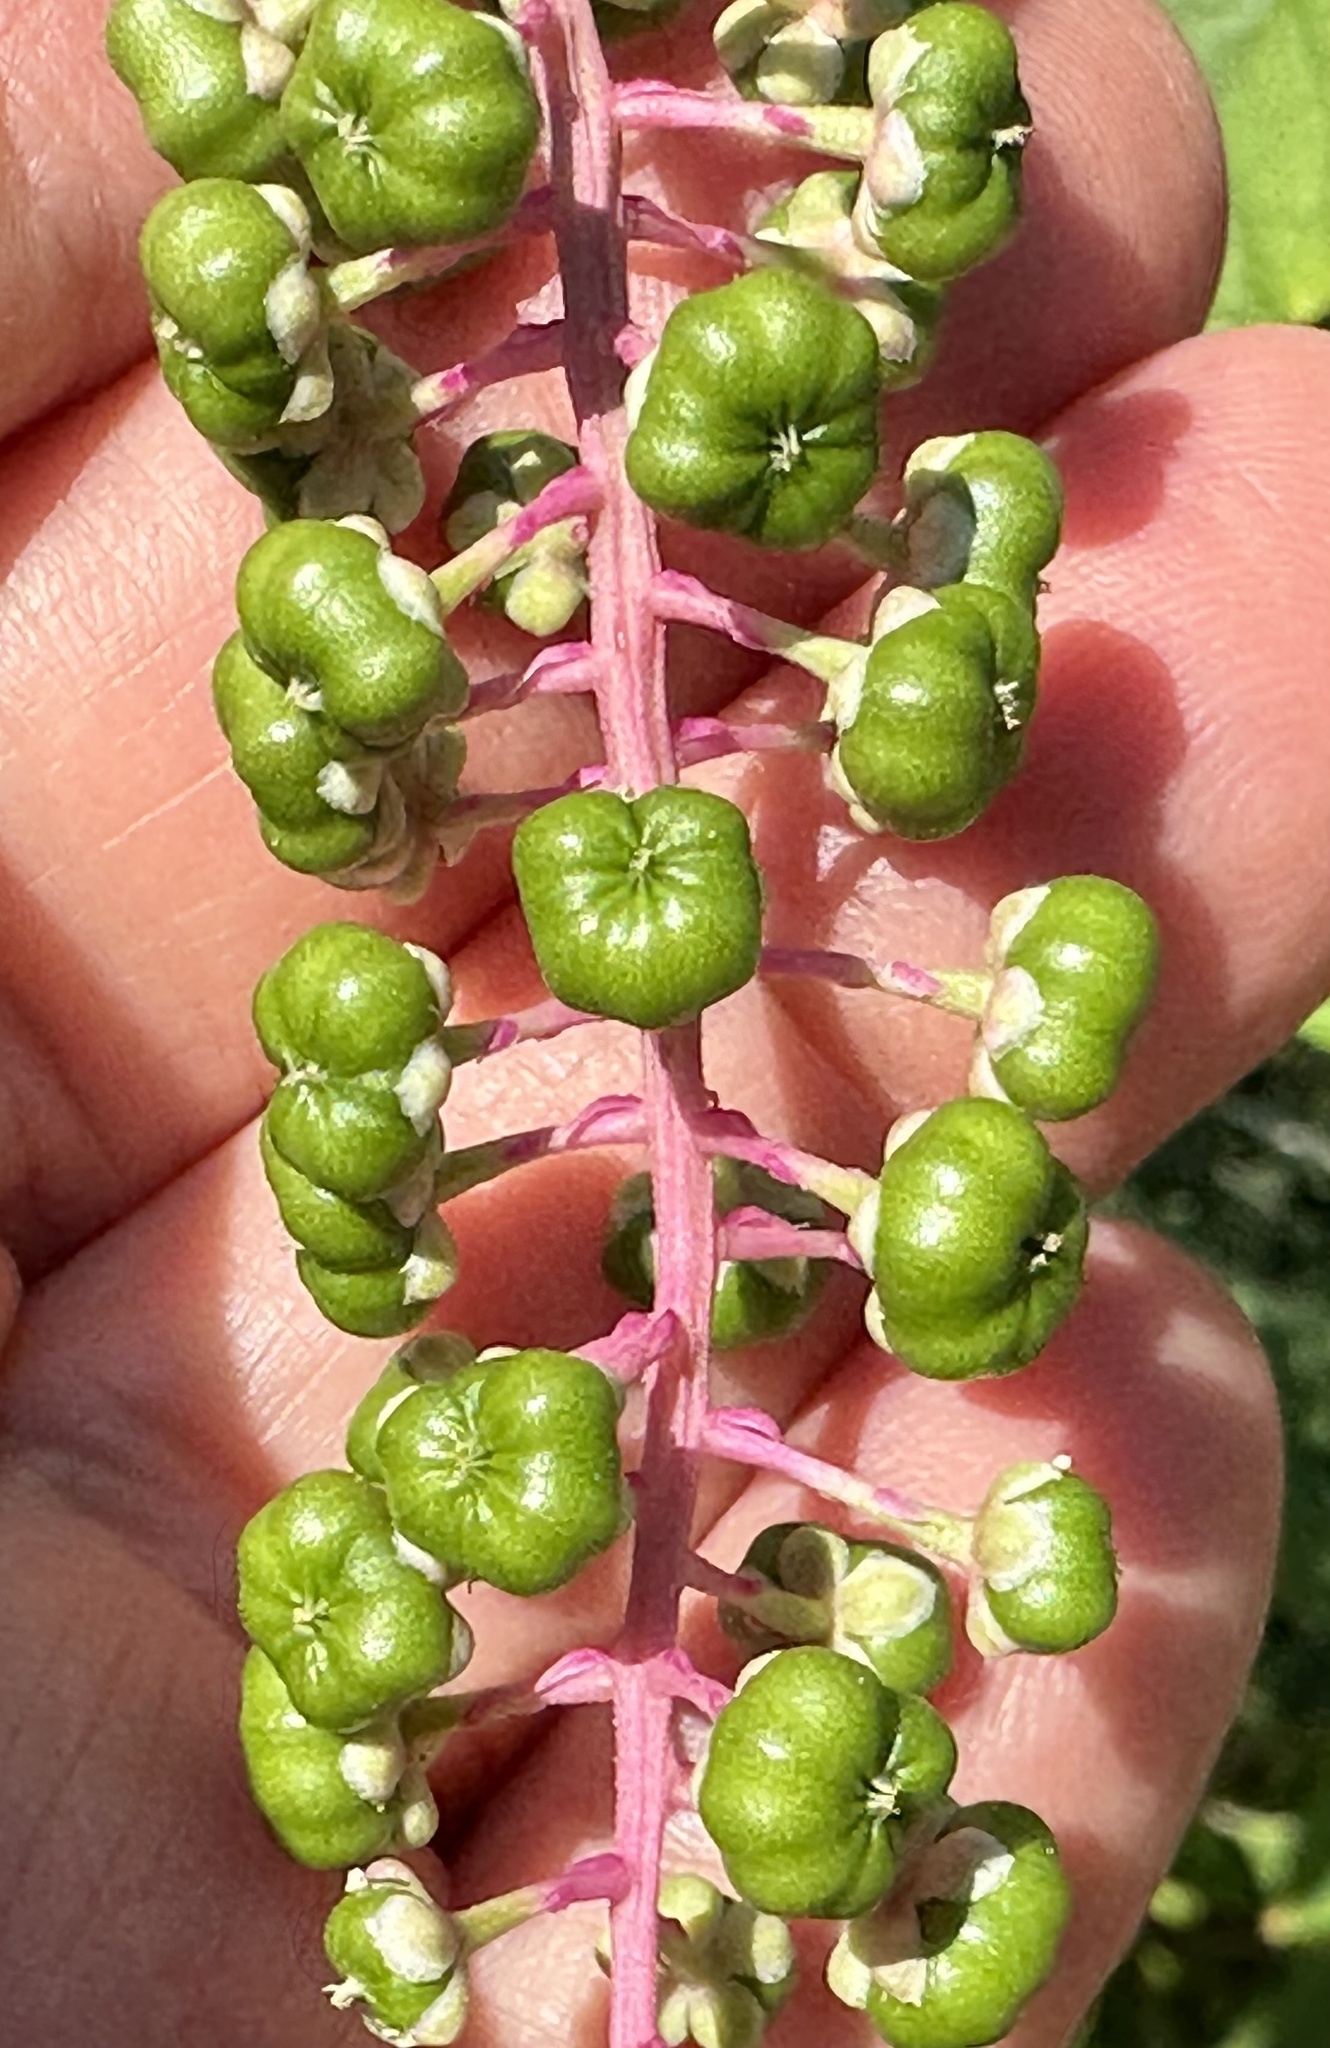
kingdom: Plantae
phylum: Tracheophyta
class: Magnoliopsida
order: Caryophyllales
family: Phytolaccaceae
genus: Phytolacca
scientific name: Phytolacca americana
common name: American pokeweed
